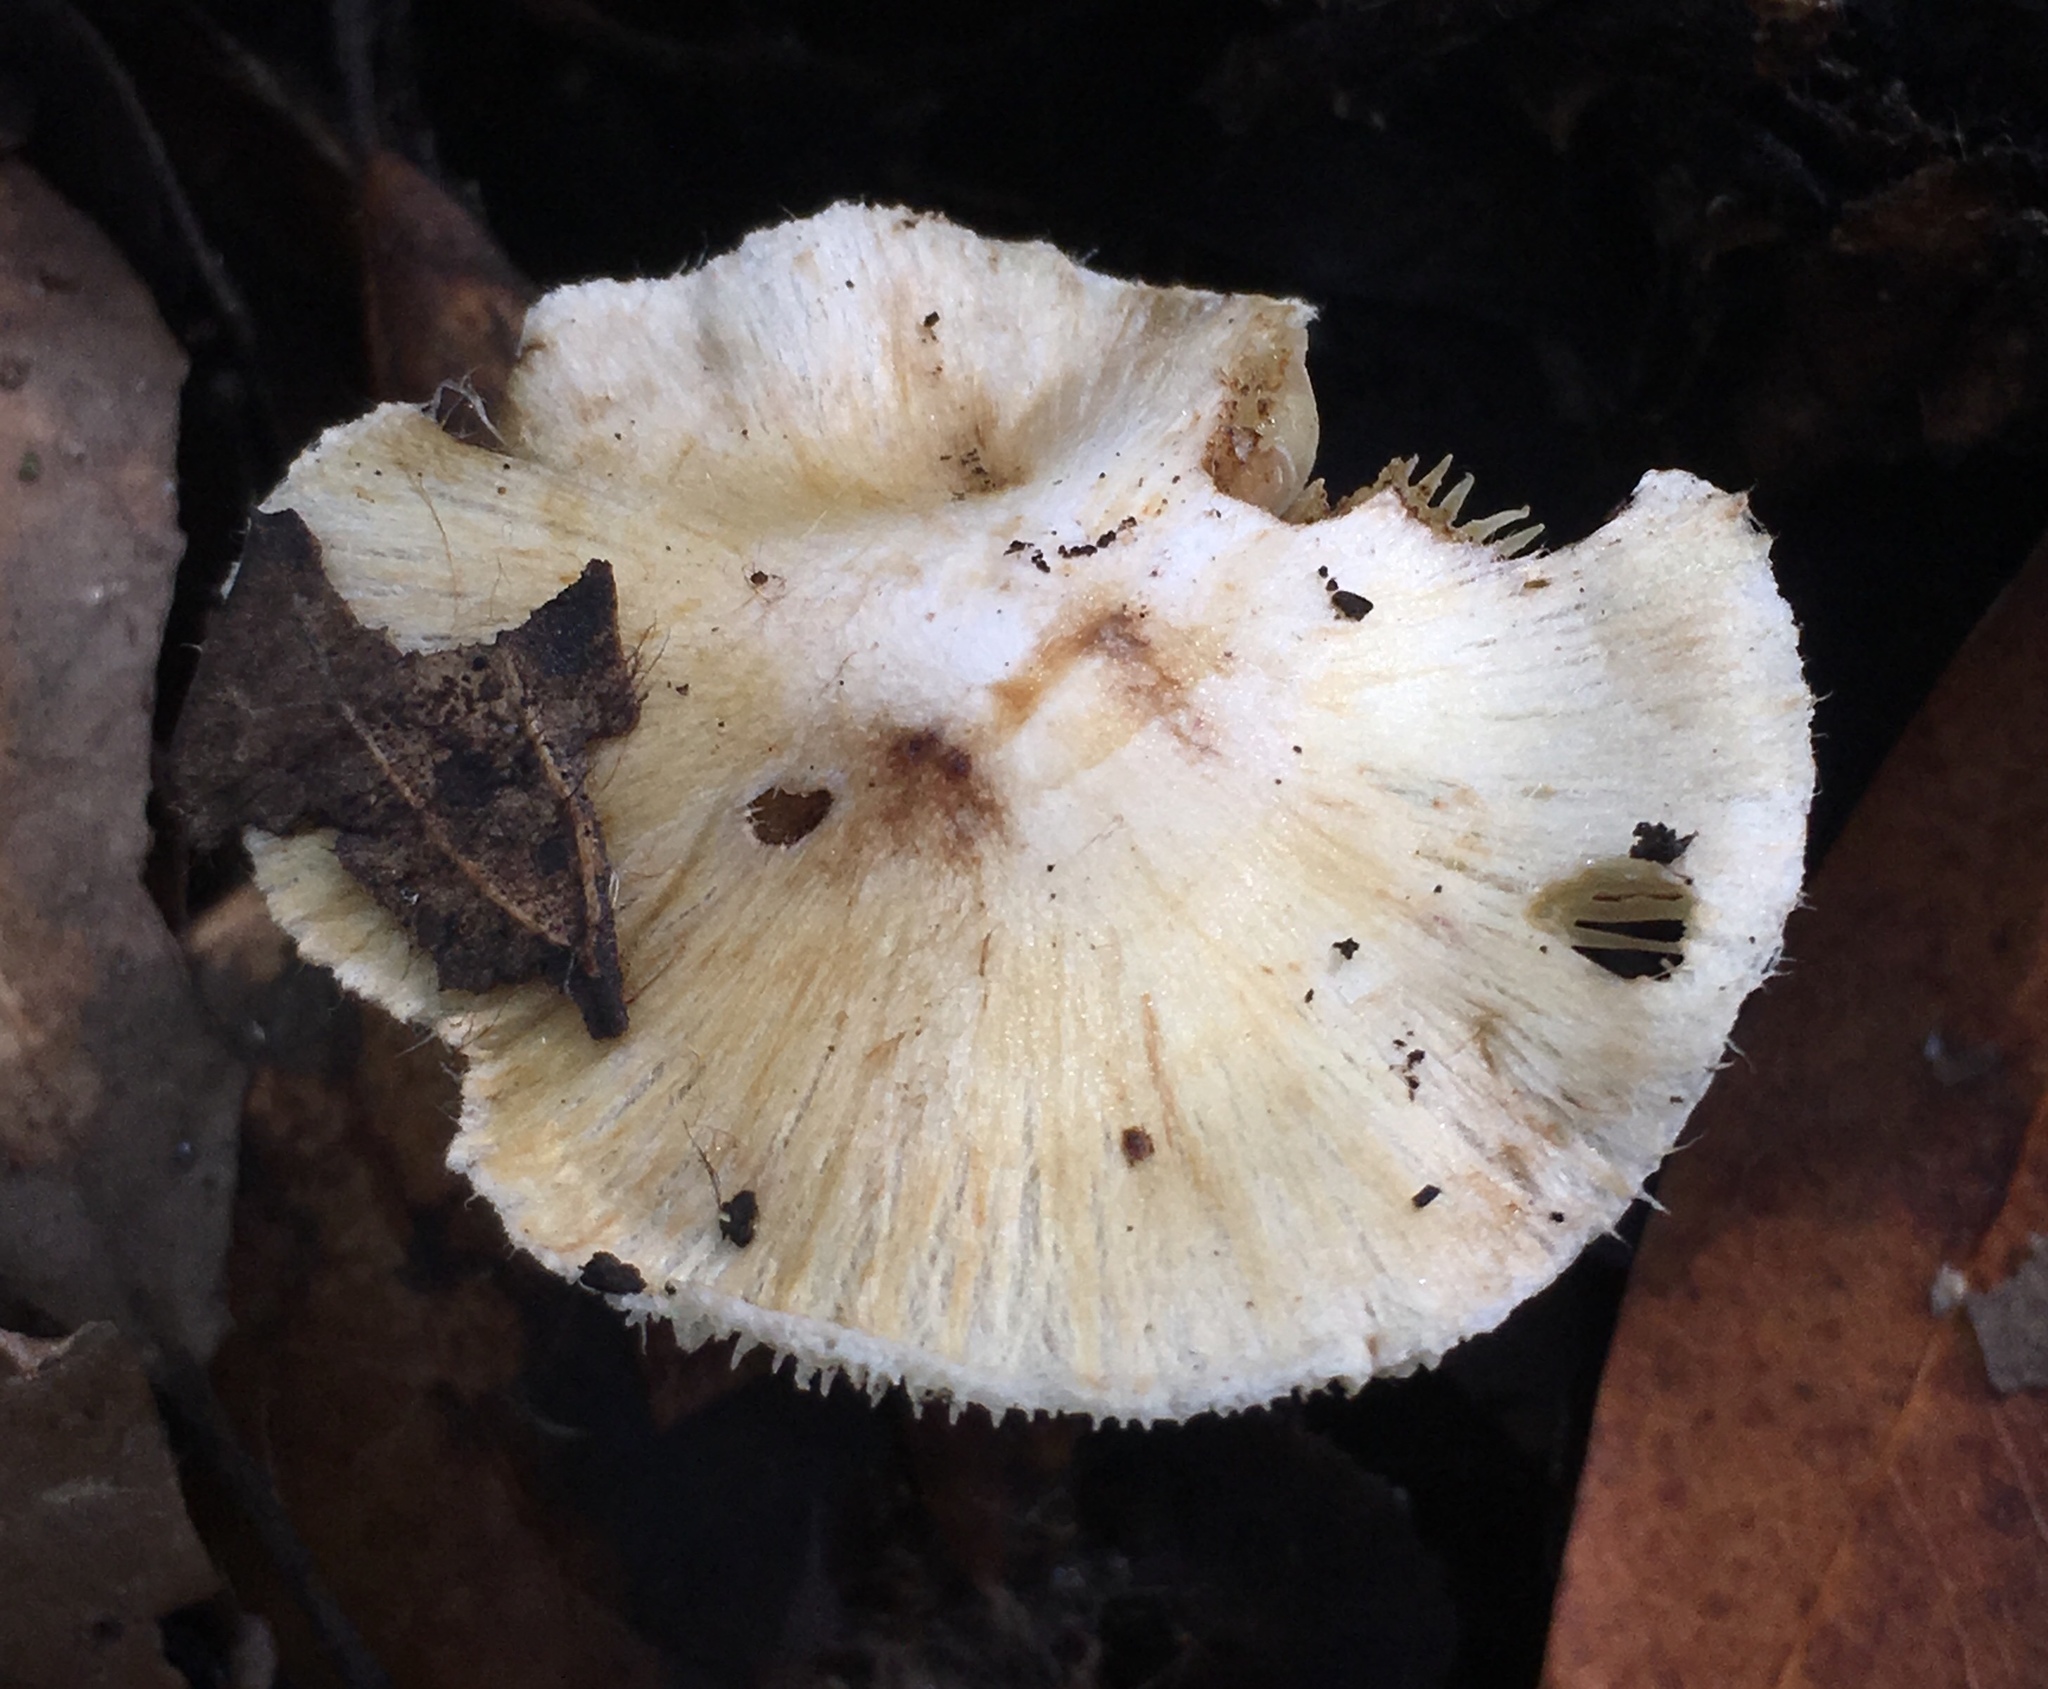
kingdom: Fungi
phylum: Basidiomycota
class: Agaricomycetes
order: Agaricales
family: Inocybaceae
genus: Pseudosperma
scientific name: Pseudosperma sororium
